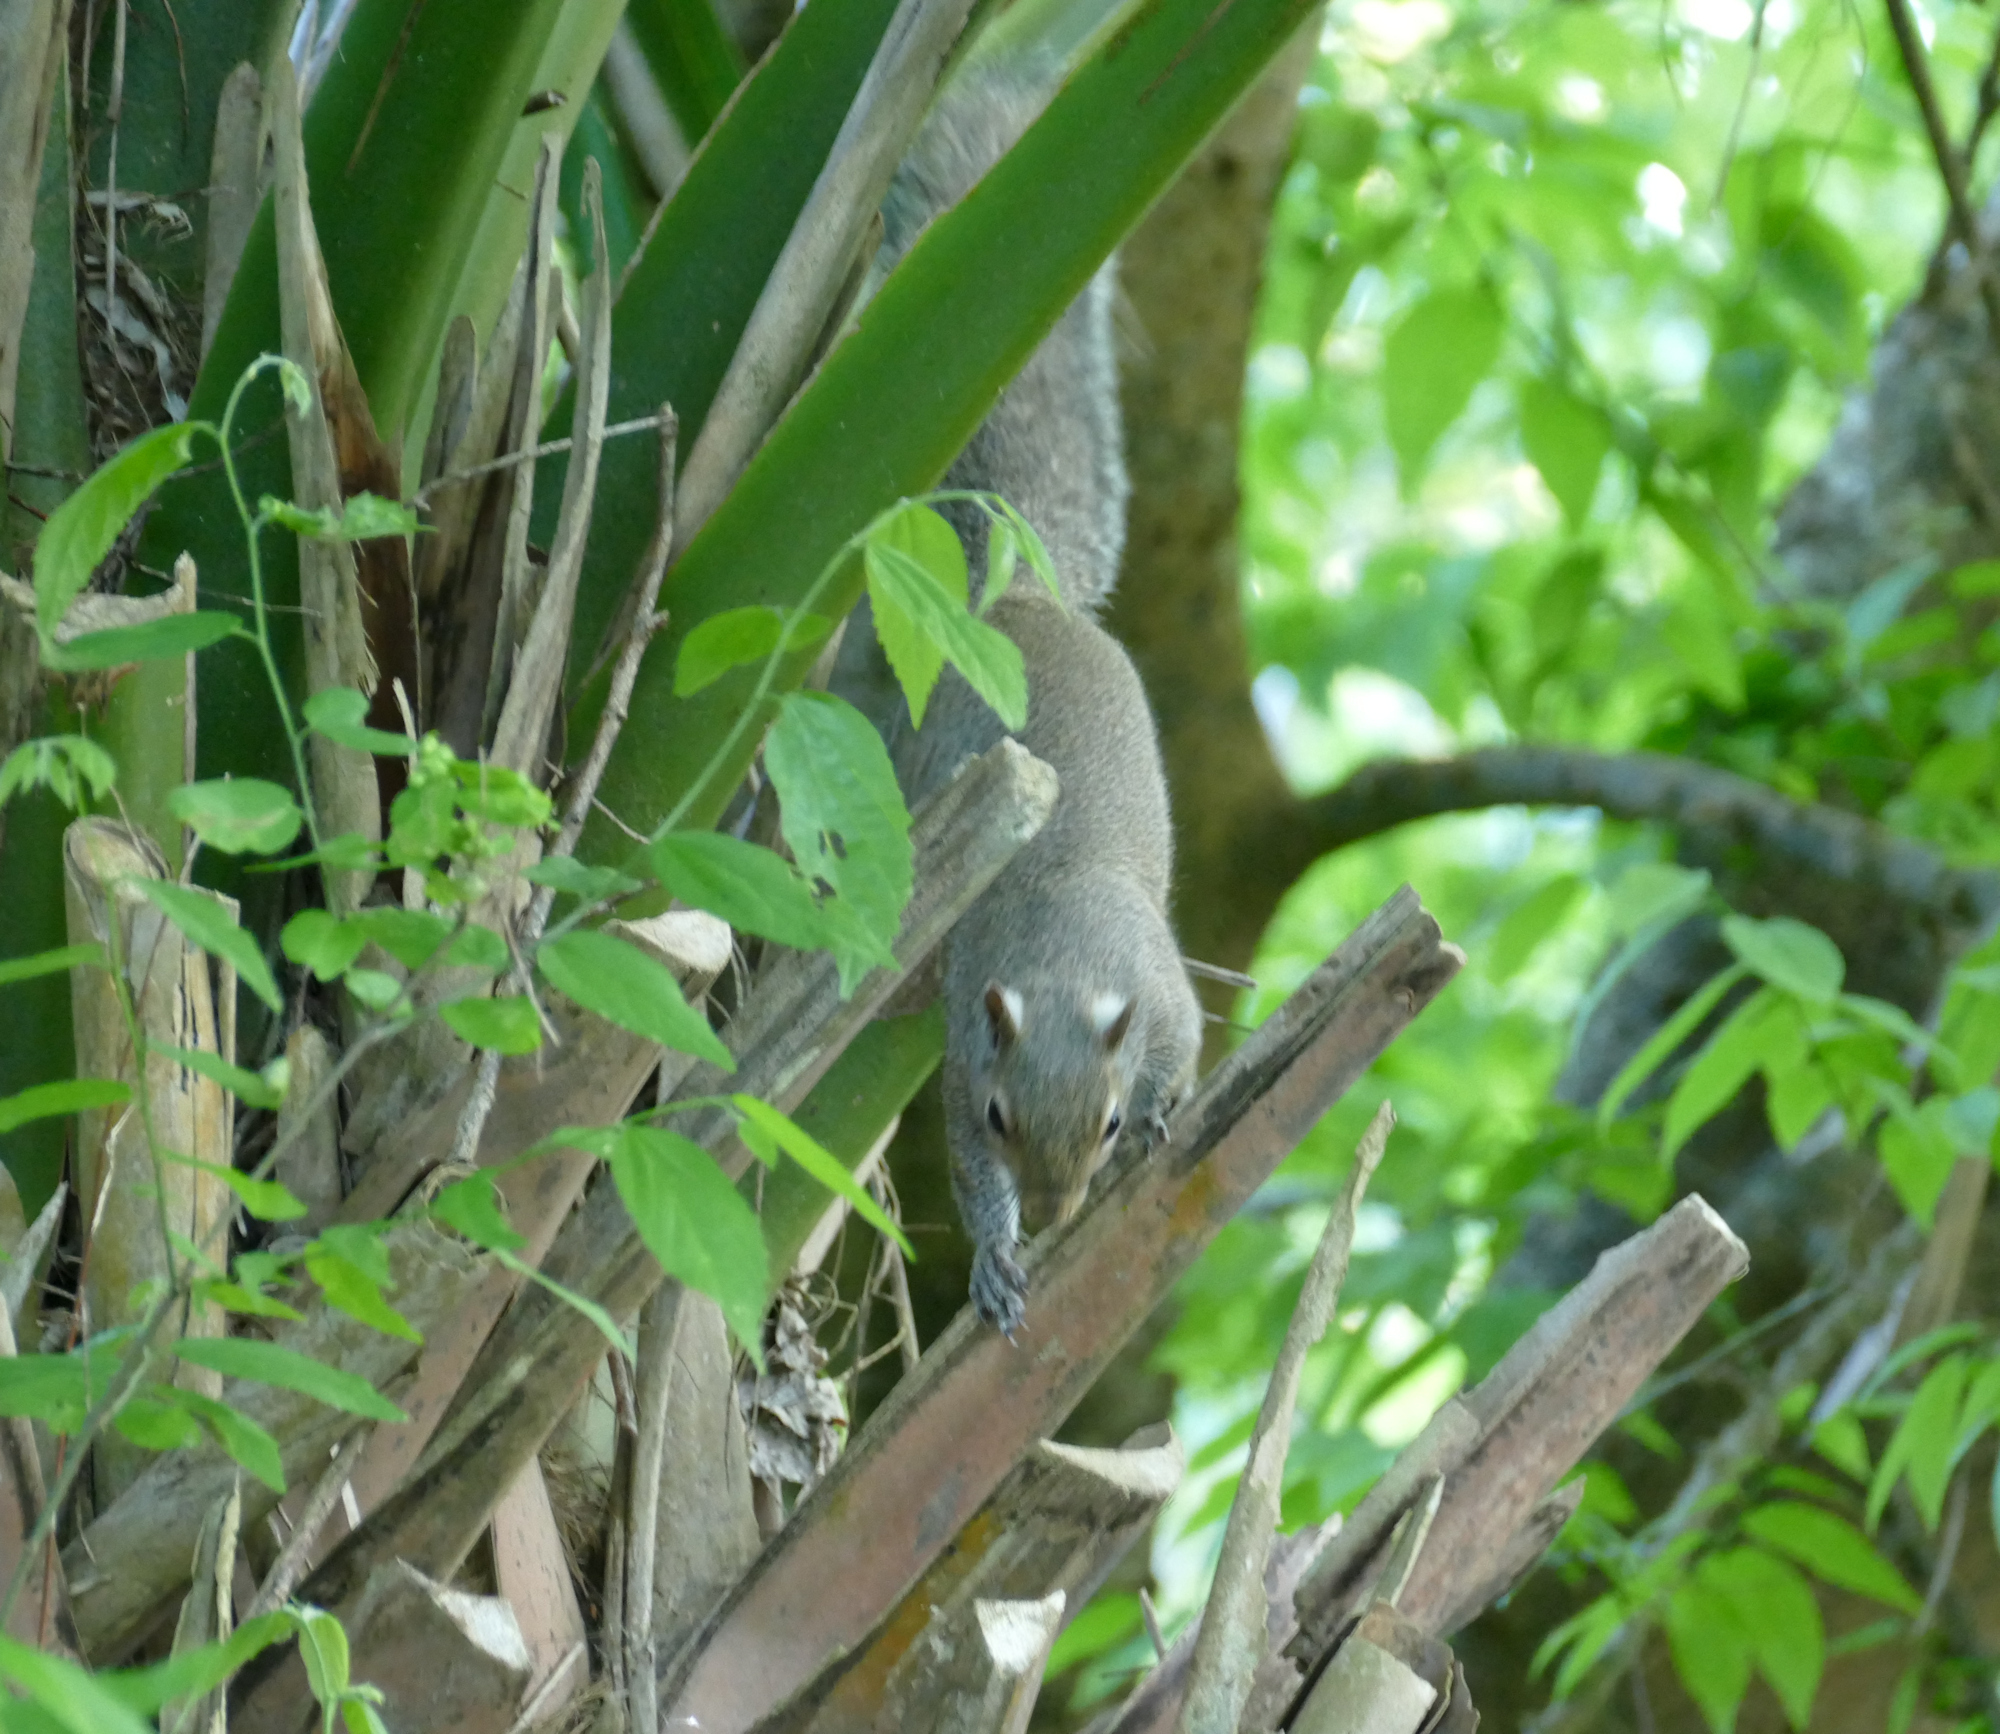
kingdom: Animalia
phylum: Chordata
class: Mammalia
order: Rodentia
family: Sciuridae
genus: Sciurus
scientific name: Sciurus carolinensis
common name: Eastern gray squirrel
